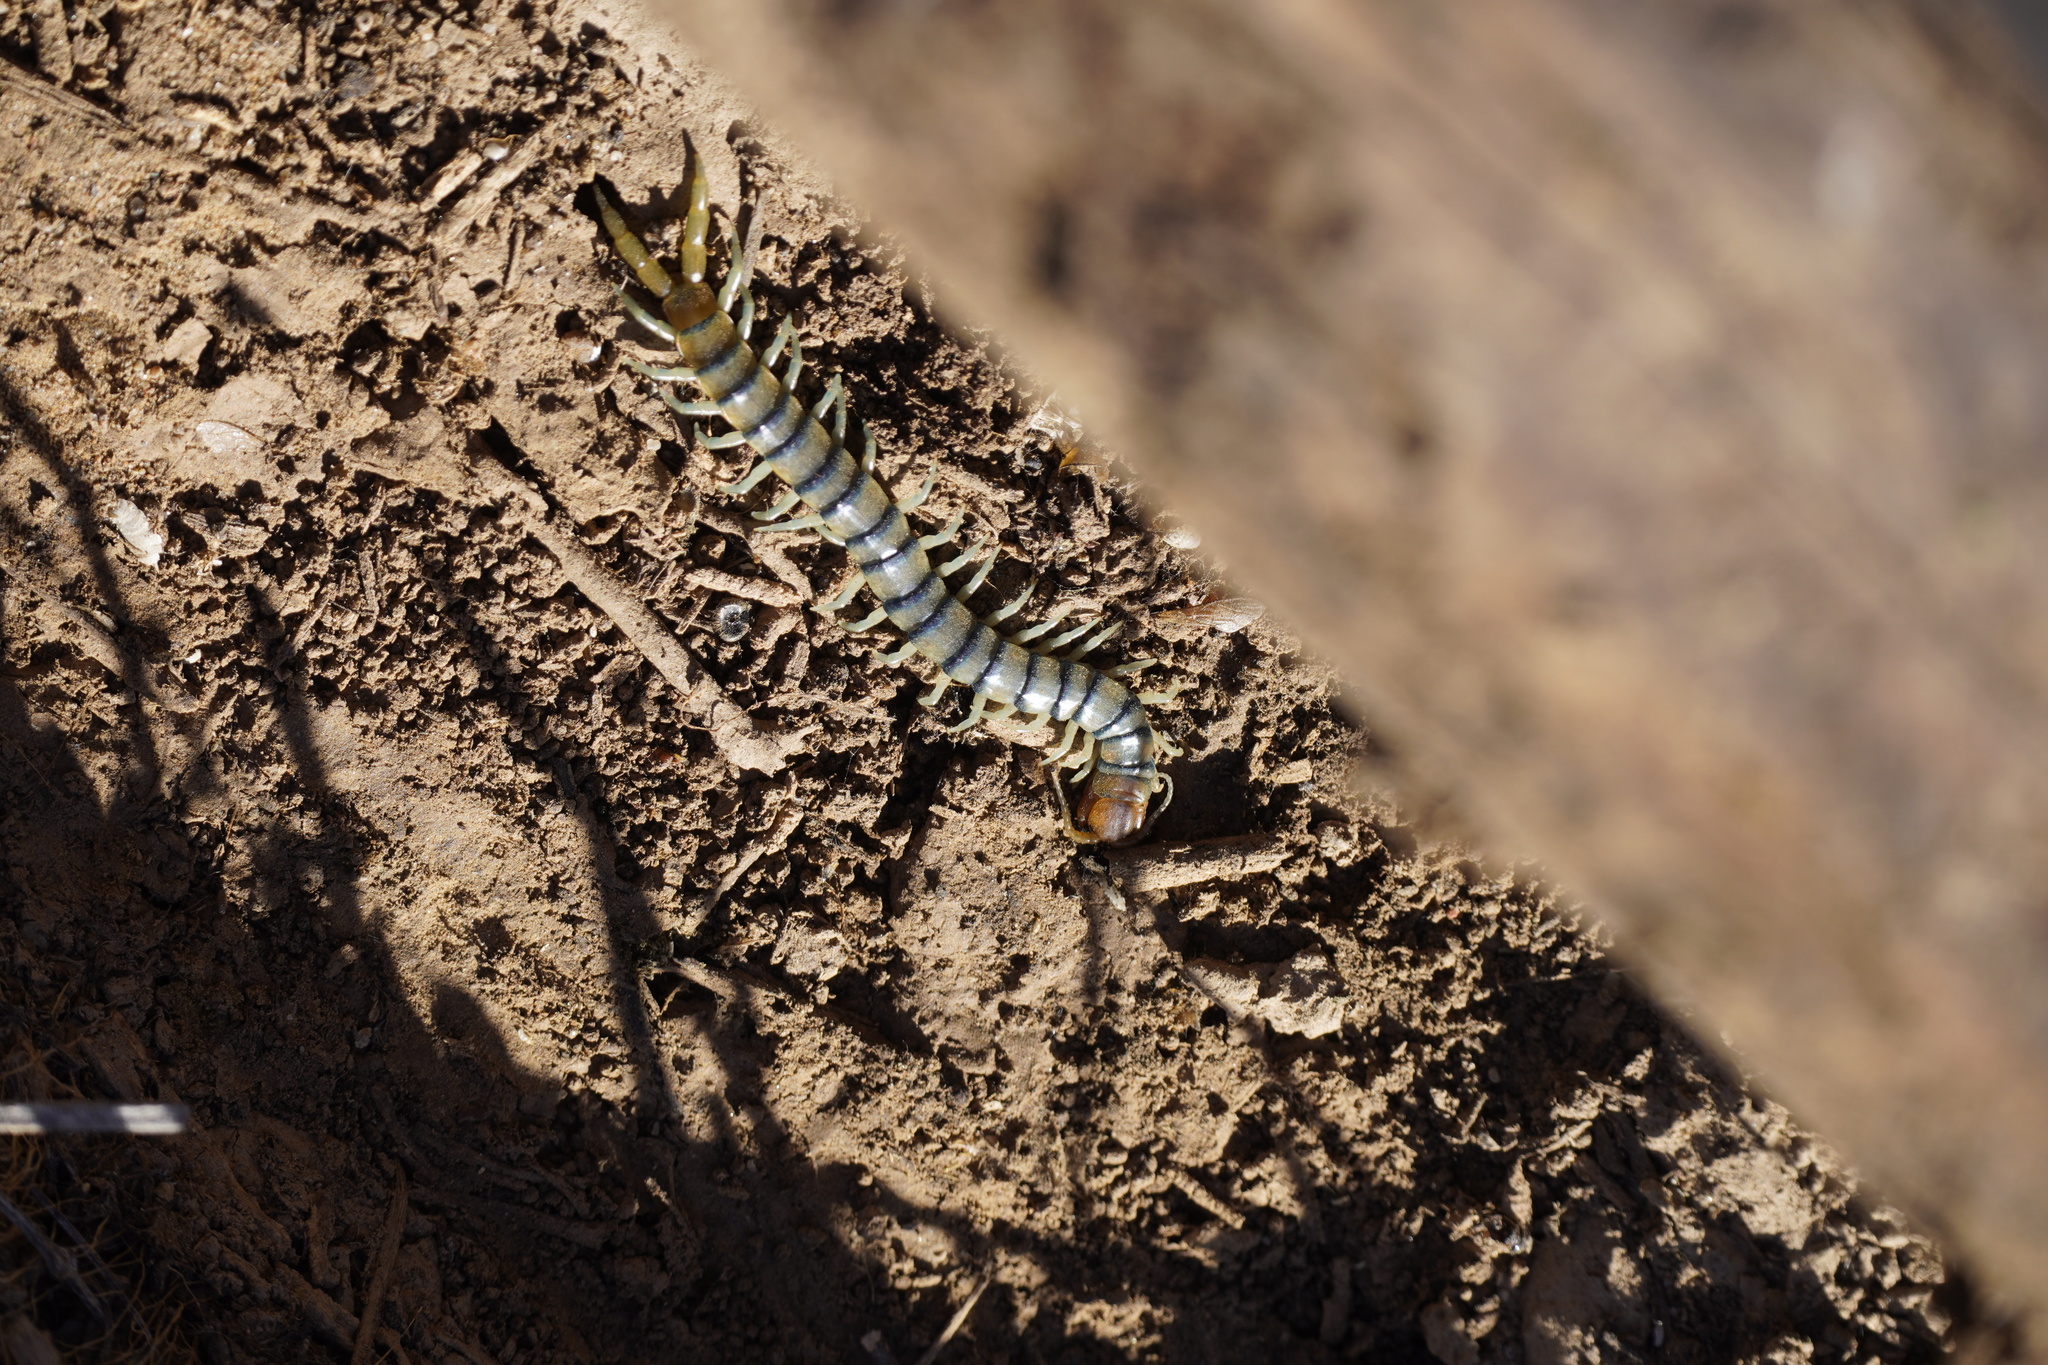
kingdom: Animalia
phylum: Arthropoda
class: Chilopoda
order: Scolopendromorpha
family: Scolopendridae
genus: Scolopendra
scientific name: Scolopendra polymorpha
